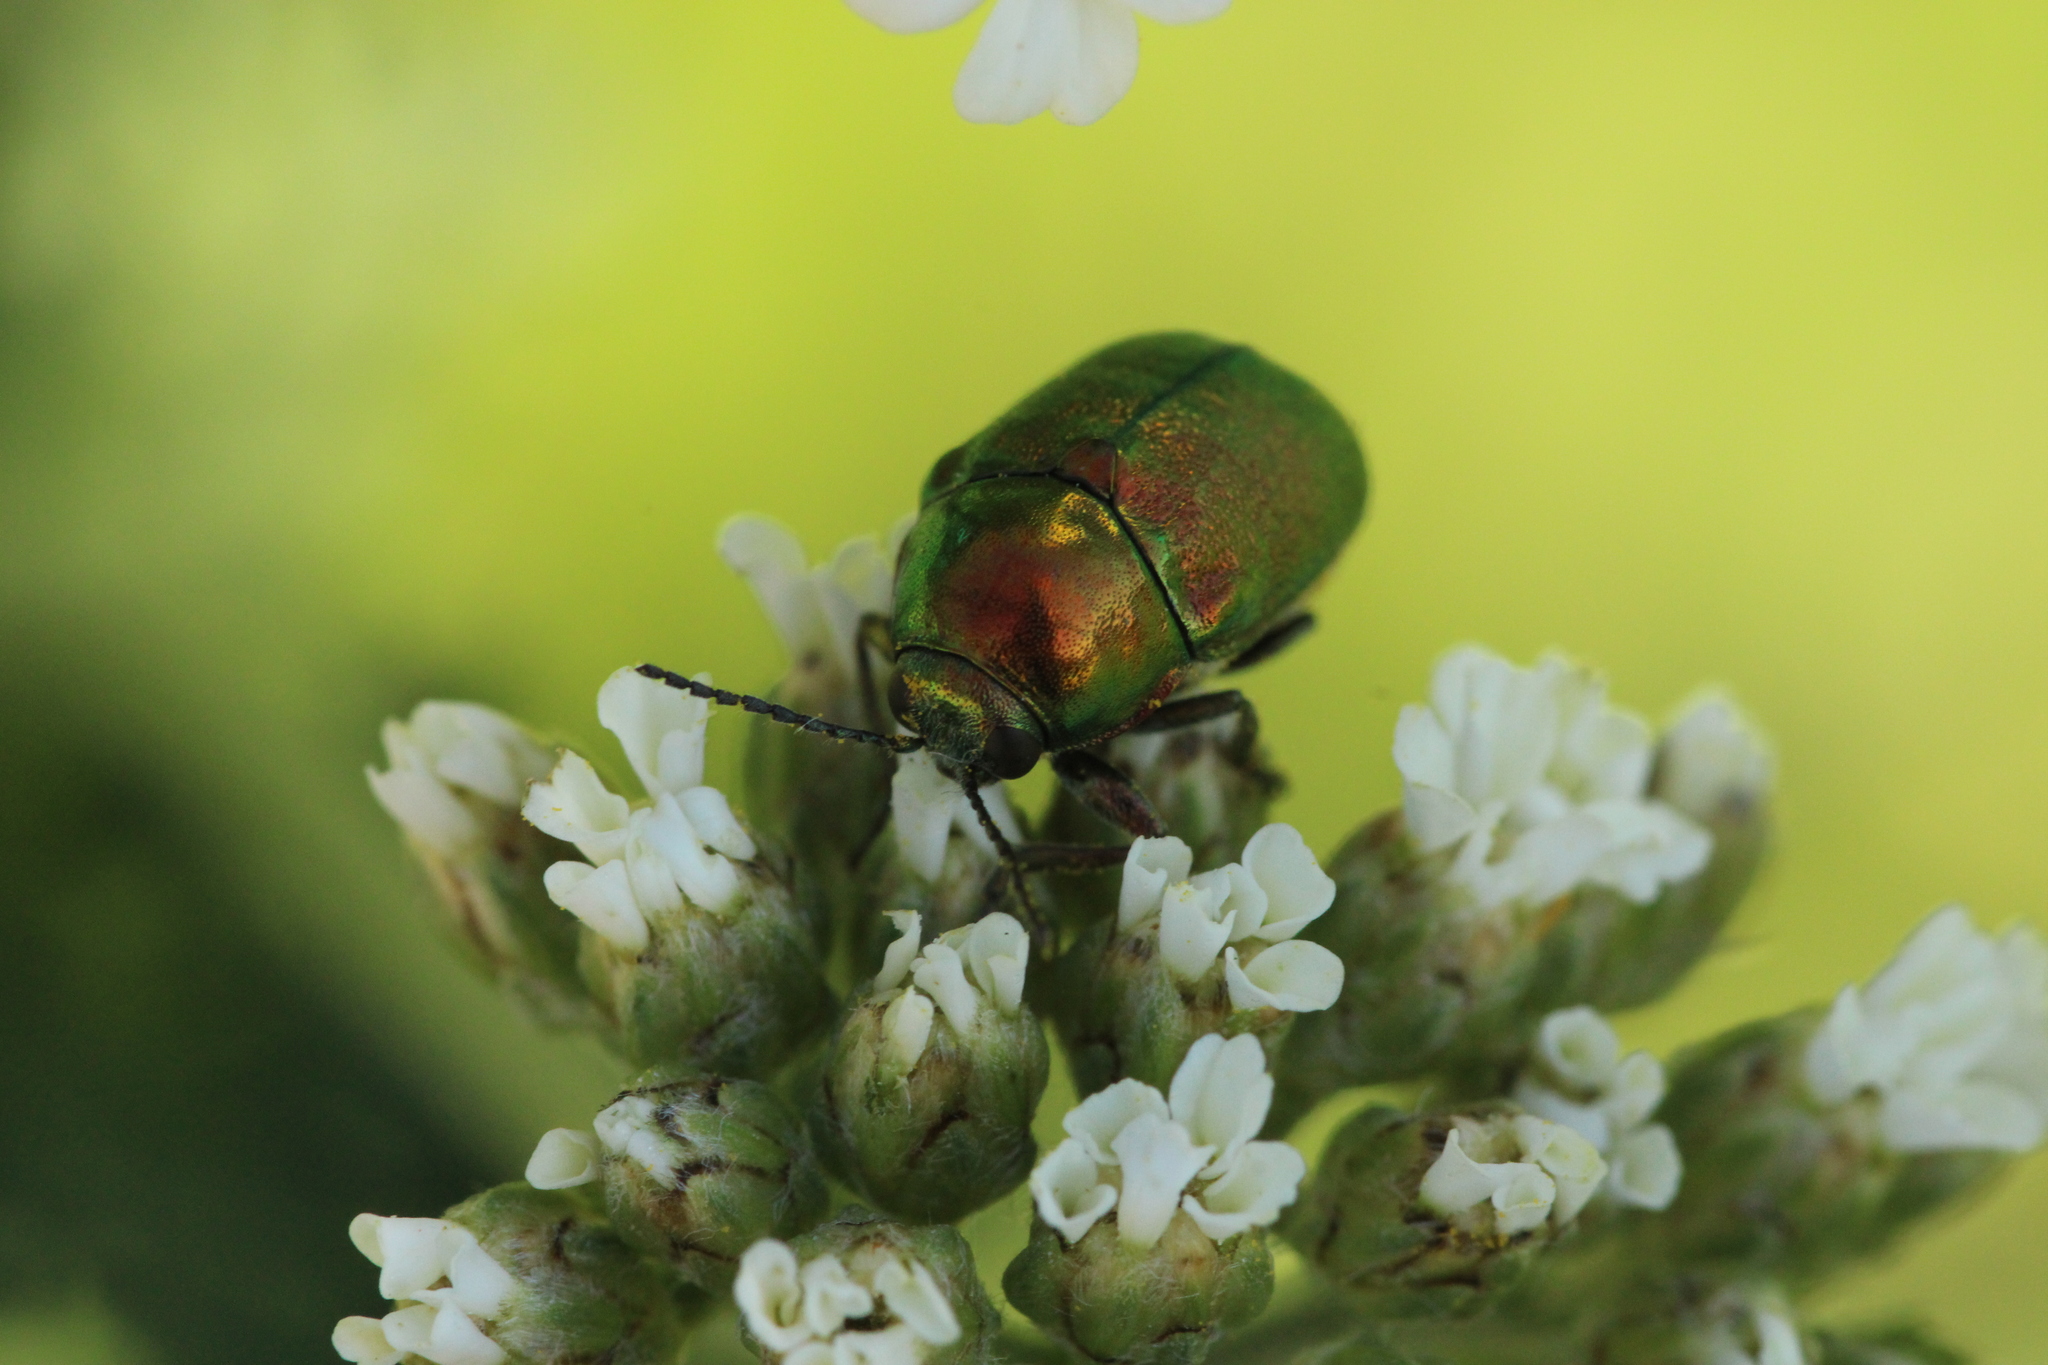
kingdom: Animalia
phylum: Arthropoda
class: Insecta
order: Coleoptera
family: Chrysomelidae
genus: Cryptocephalus
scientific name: Cryptocephalus
